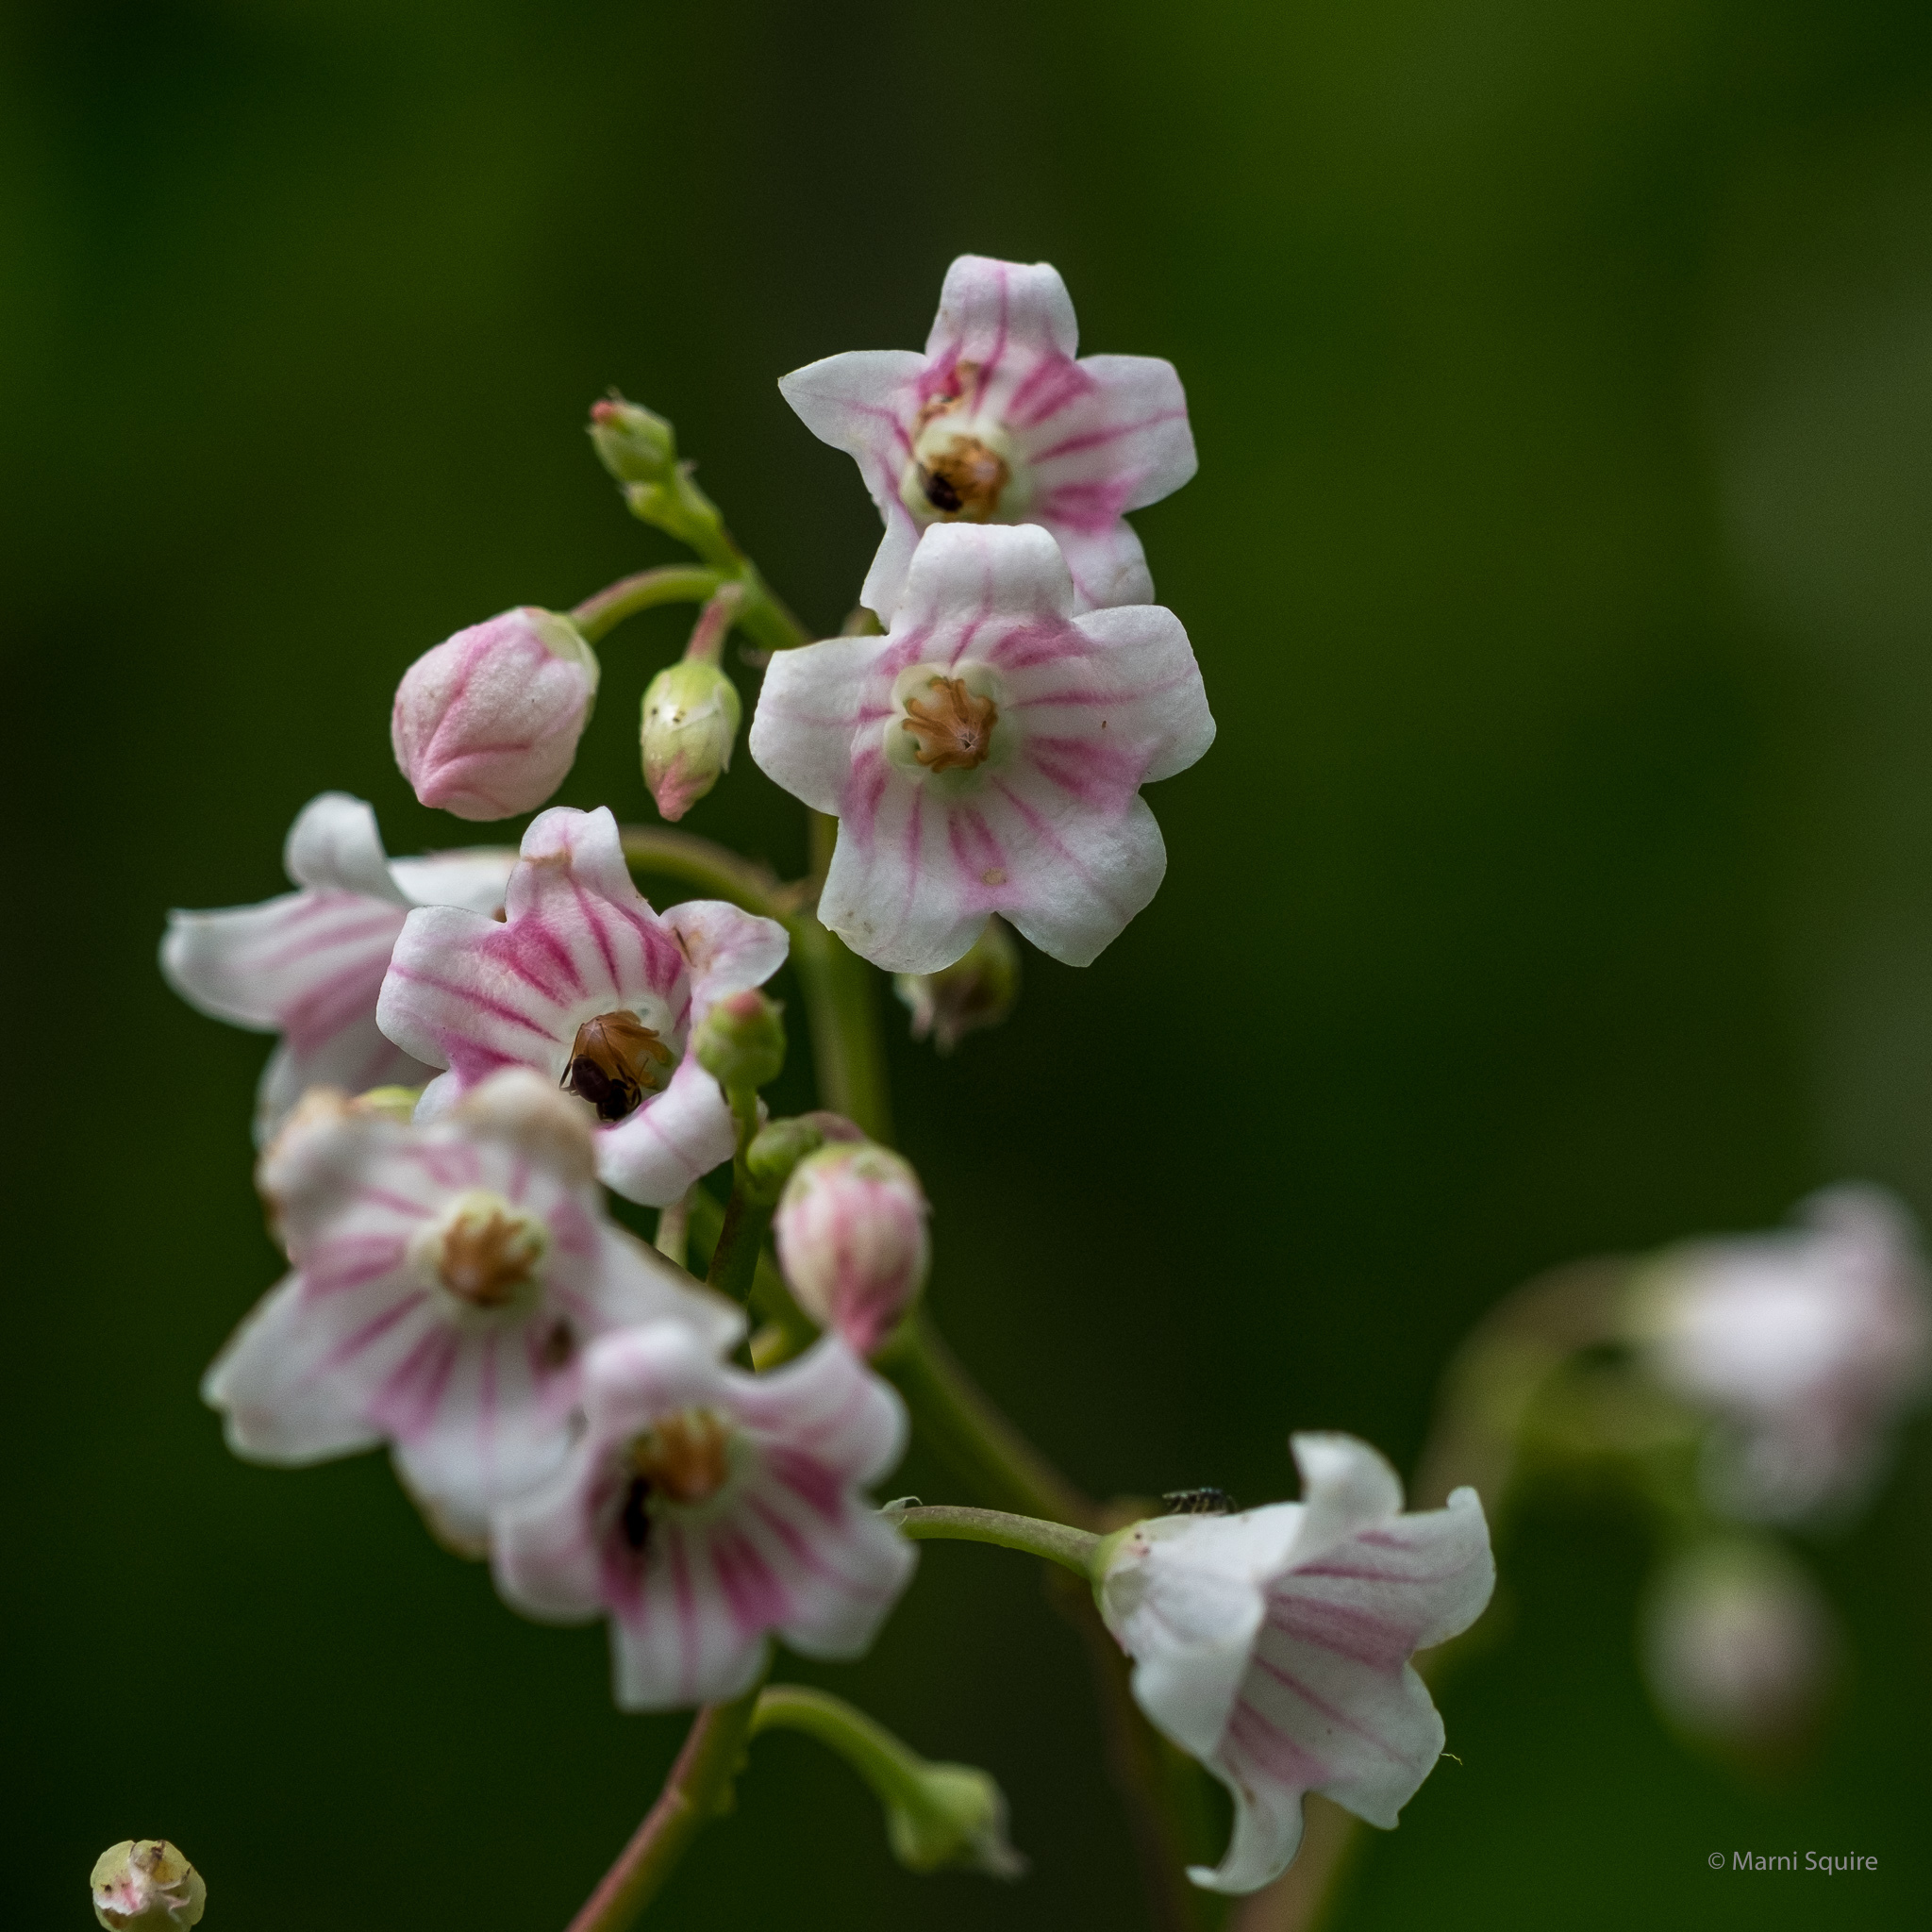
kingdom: Plantae
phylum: Tracheophyta
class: Magnoliopsida
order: Gentianales
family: Apocynaceae
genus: Apocynum
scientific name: Apocynum androsaemifolium
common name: Spreading dogbane
